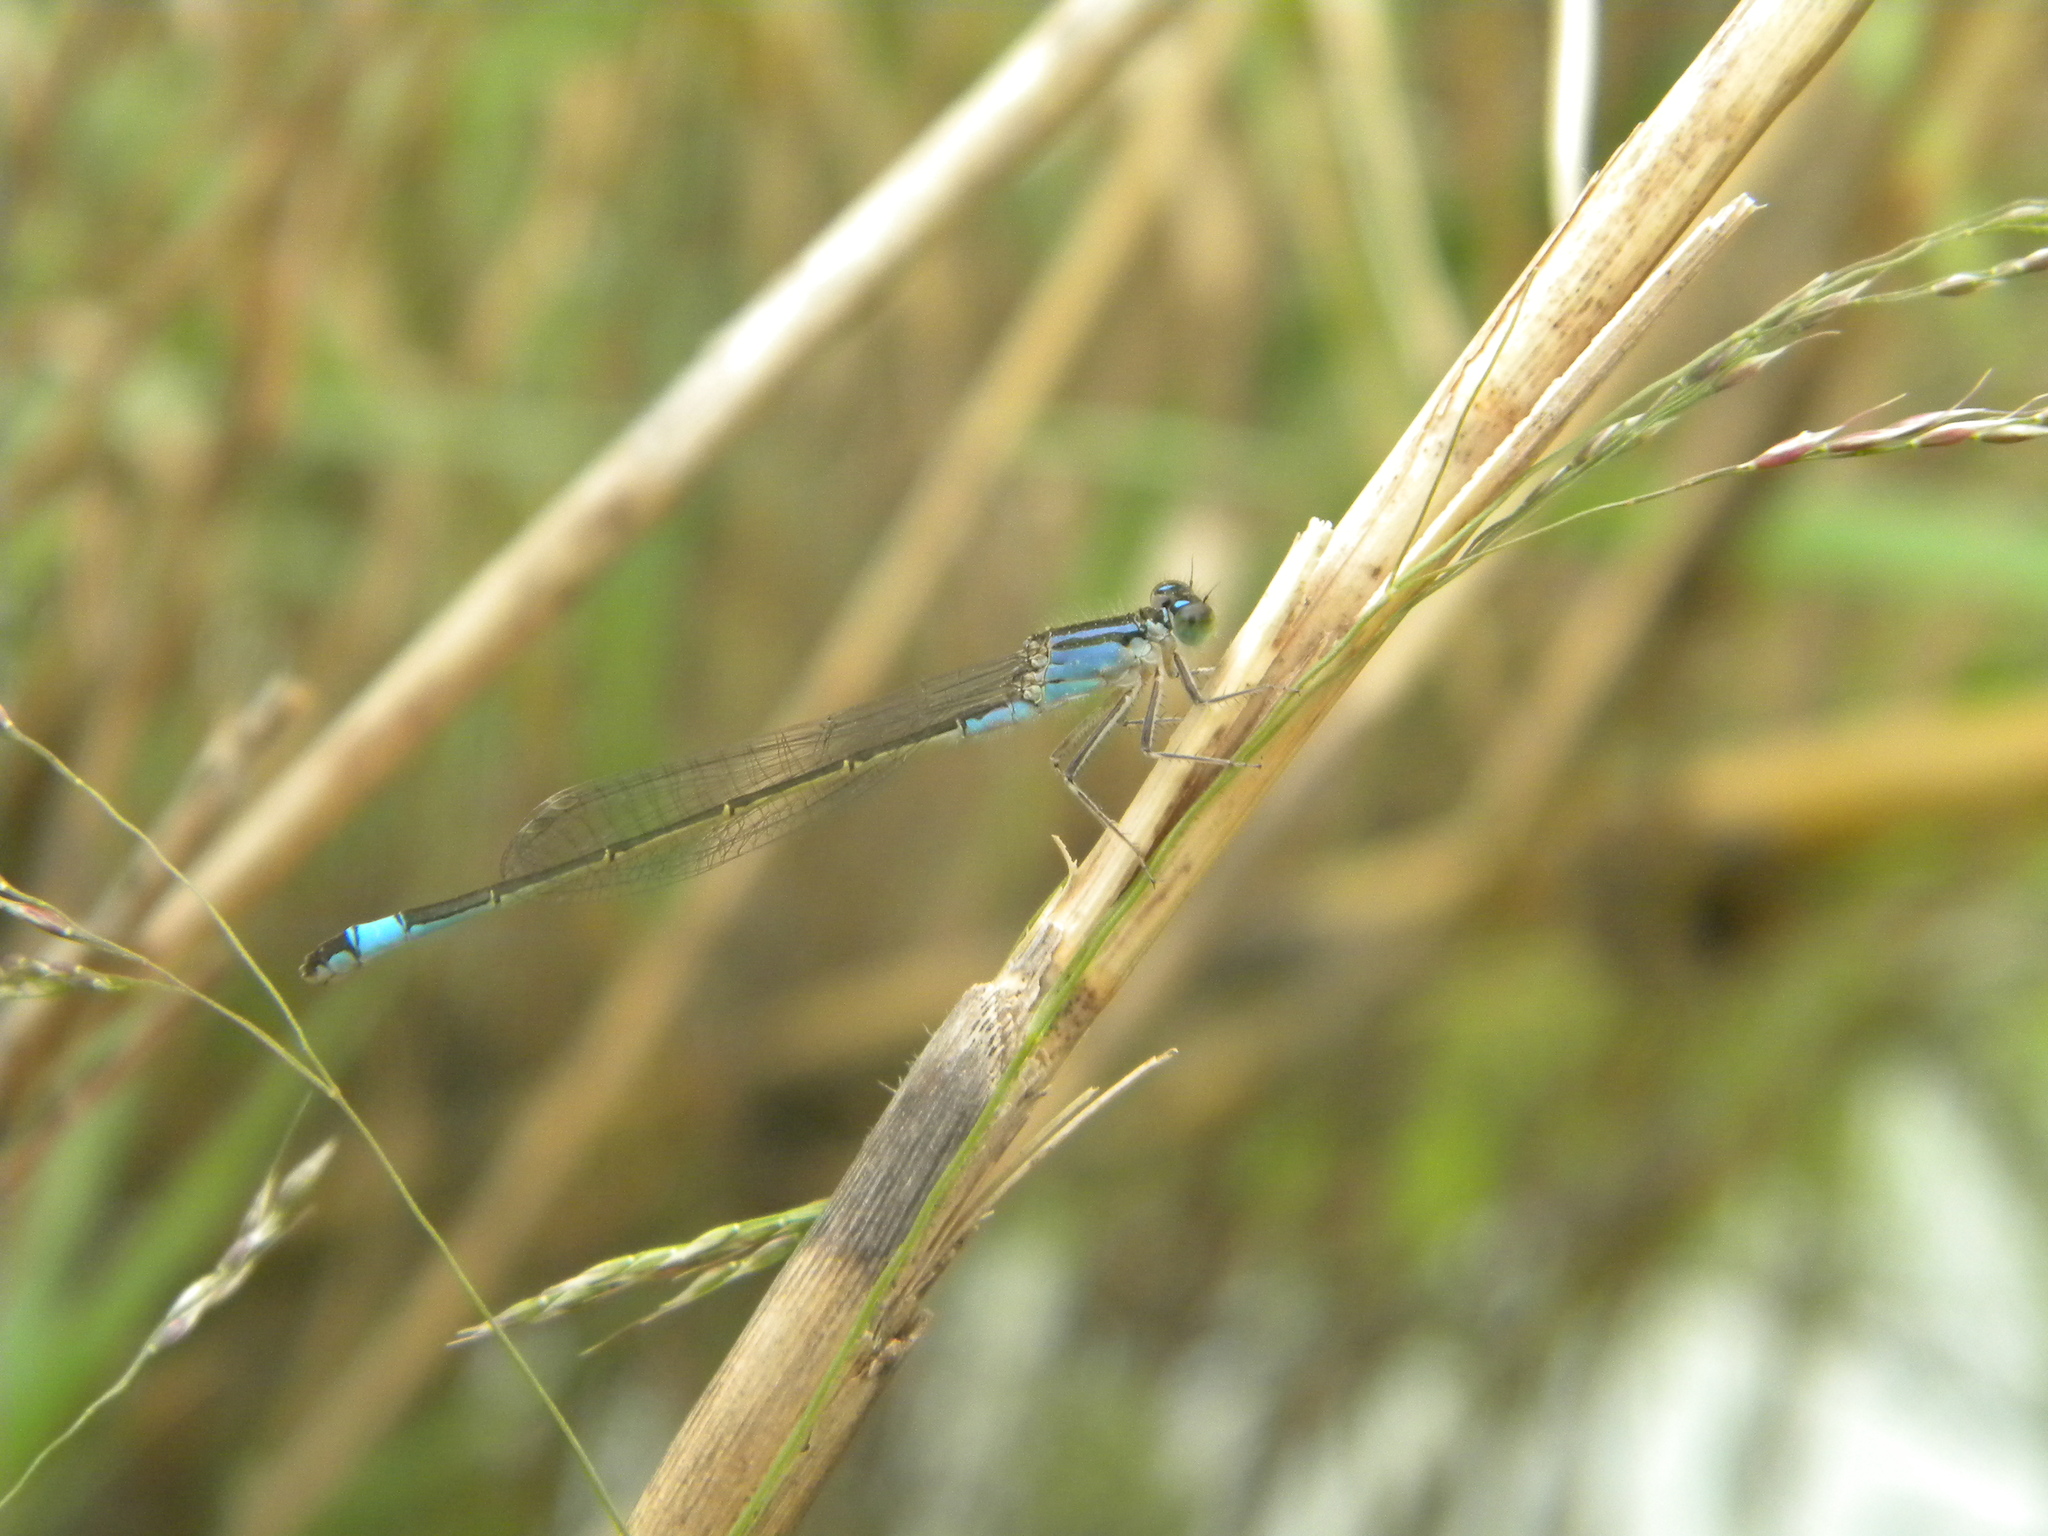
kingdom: Animalia
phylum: Arthropoda
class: Insecta
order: Odonata
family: Coenagrionidae
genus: Ischnura
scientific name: Ischnura elegans
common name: Blue-tailed damselfly
